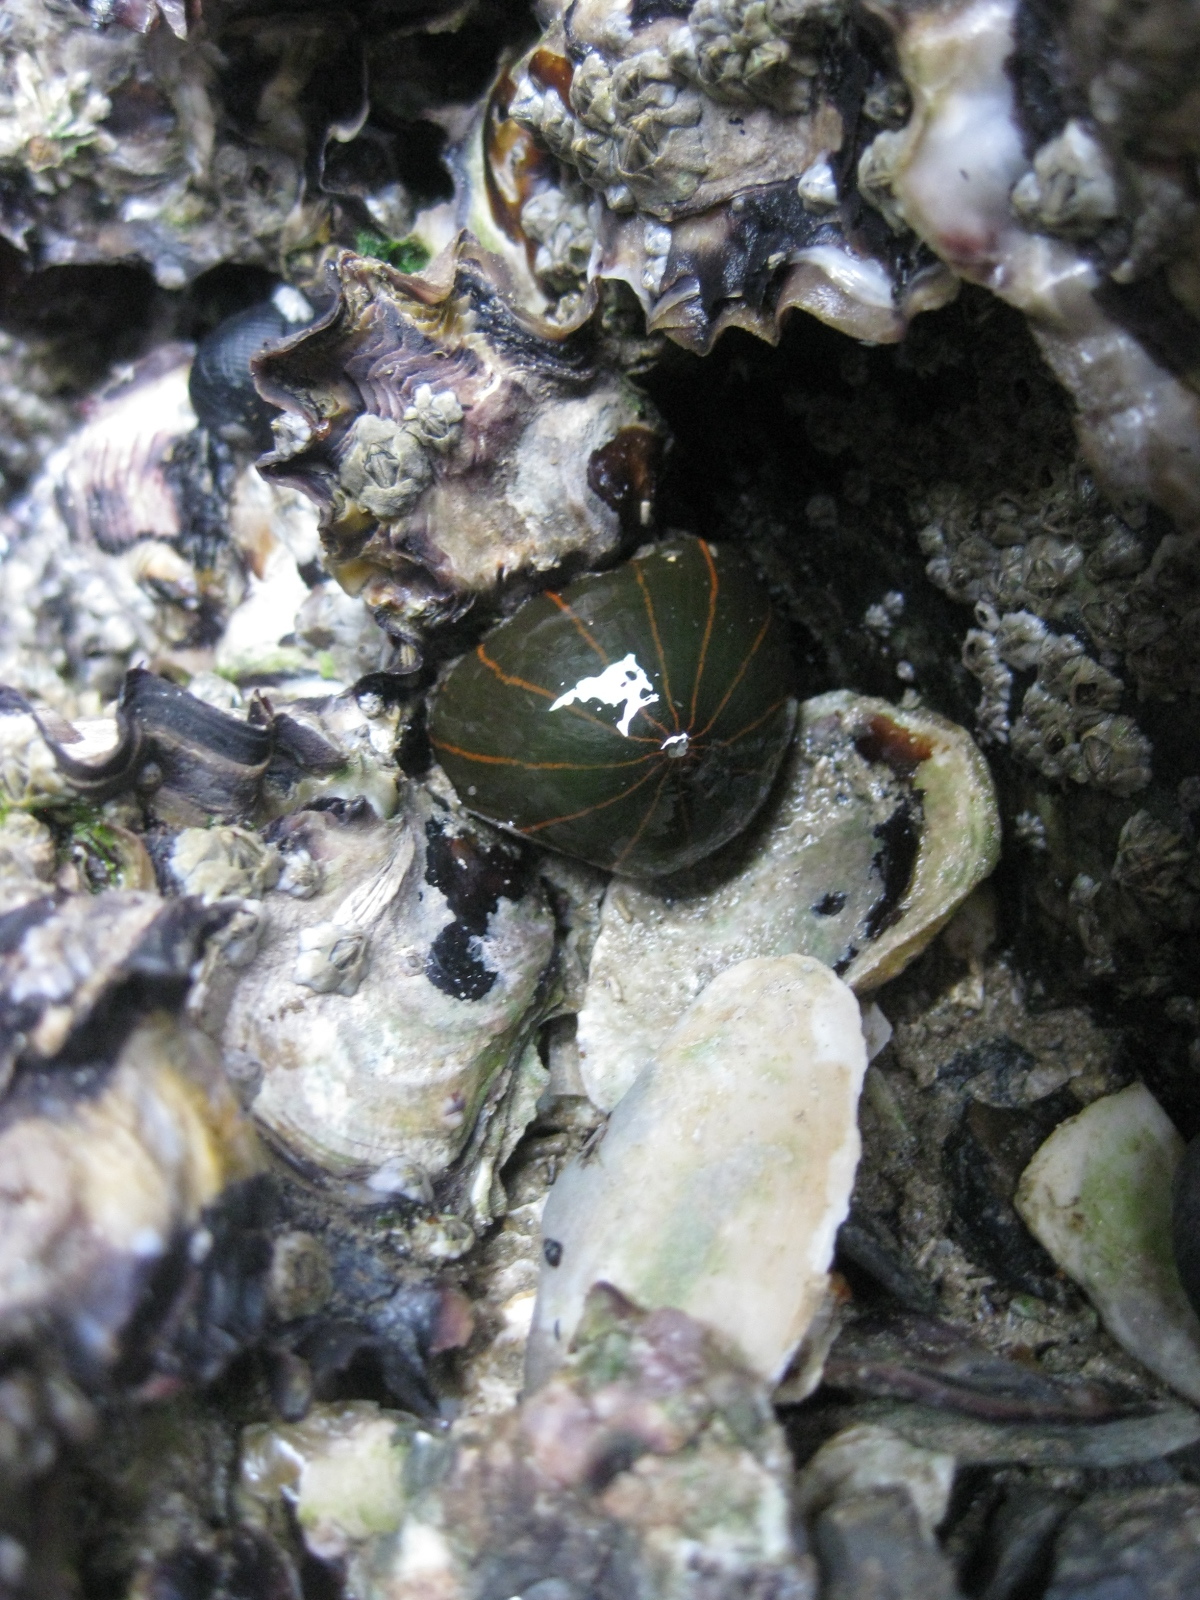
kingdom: Animalia
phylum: Cnidaria
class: Anthozoa
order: Actiniaria
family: Diadumenidae
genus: Diadumene
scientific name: Diadumene lineata
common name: Orange-striped anemone
